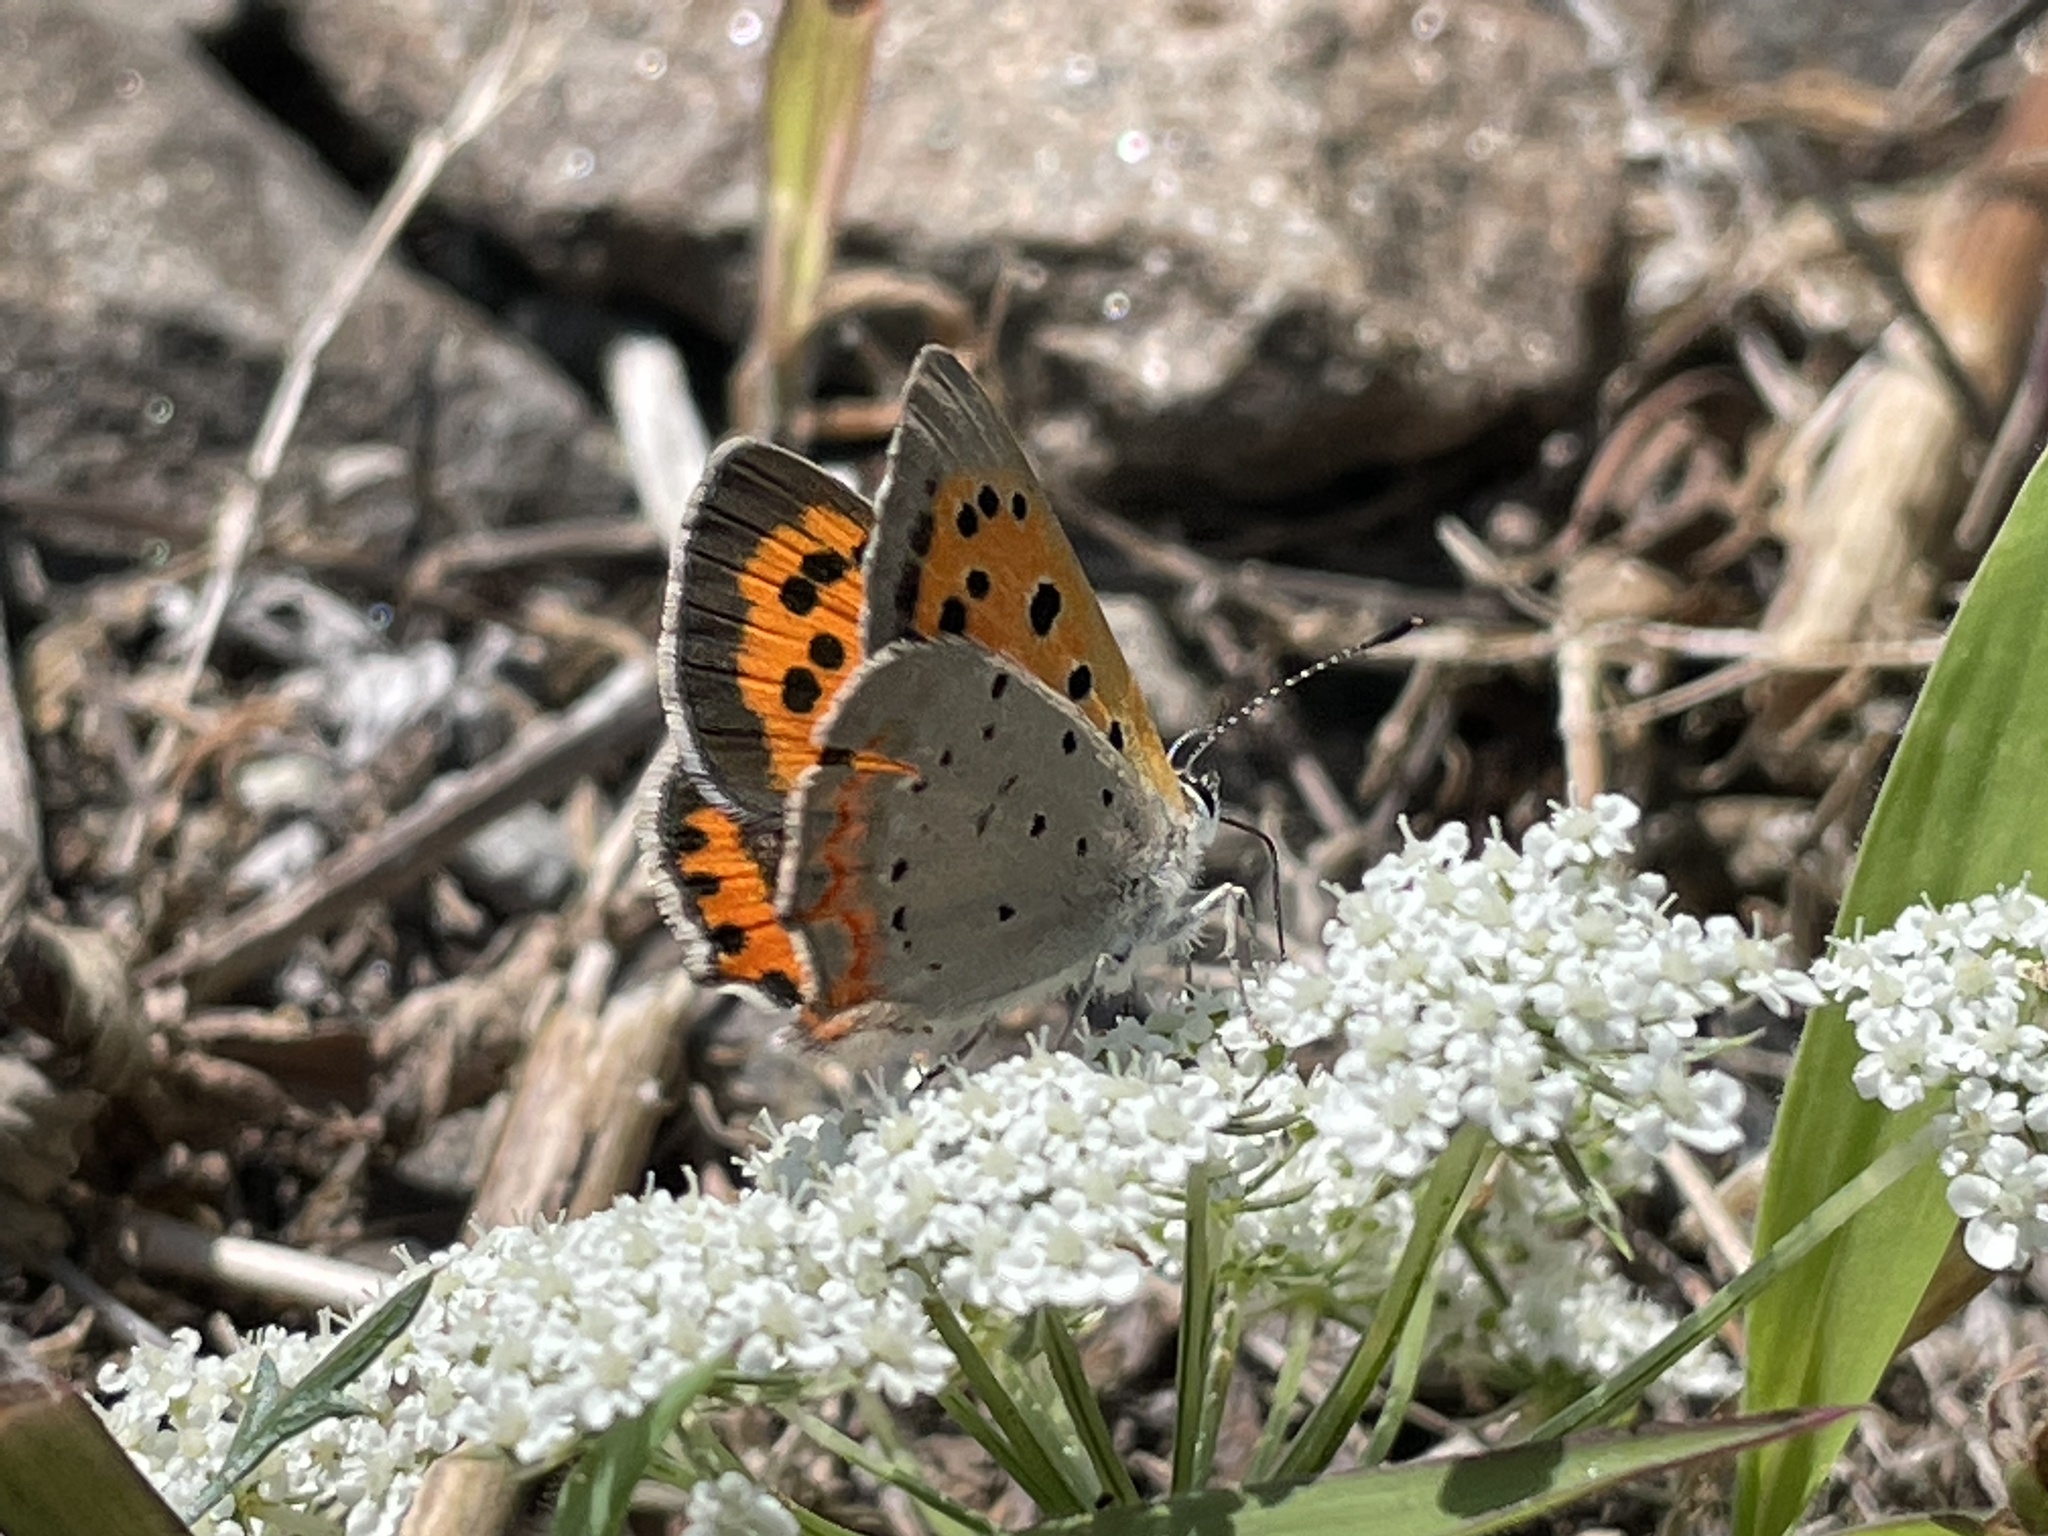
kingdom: Animalia
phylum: Arthropoda
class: Insecta
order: Lepidoptera
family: Lycaenidae
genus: Lycaena
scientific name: Lycaena hypophlaeas
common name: American copper
